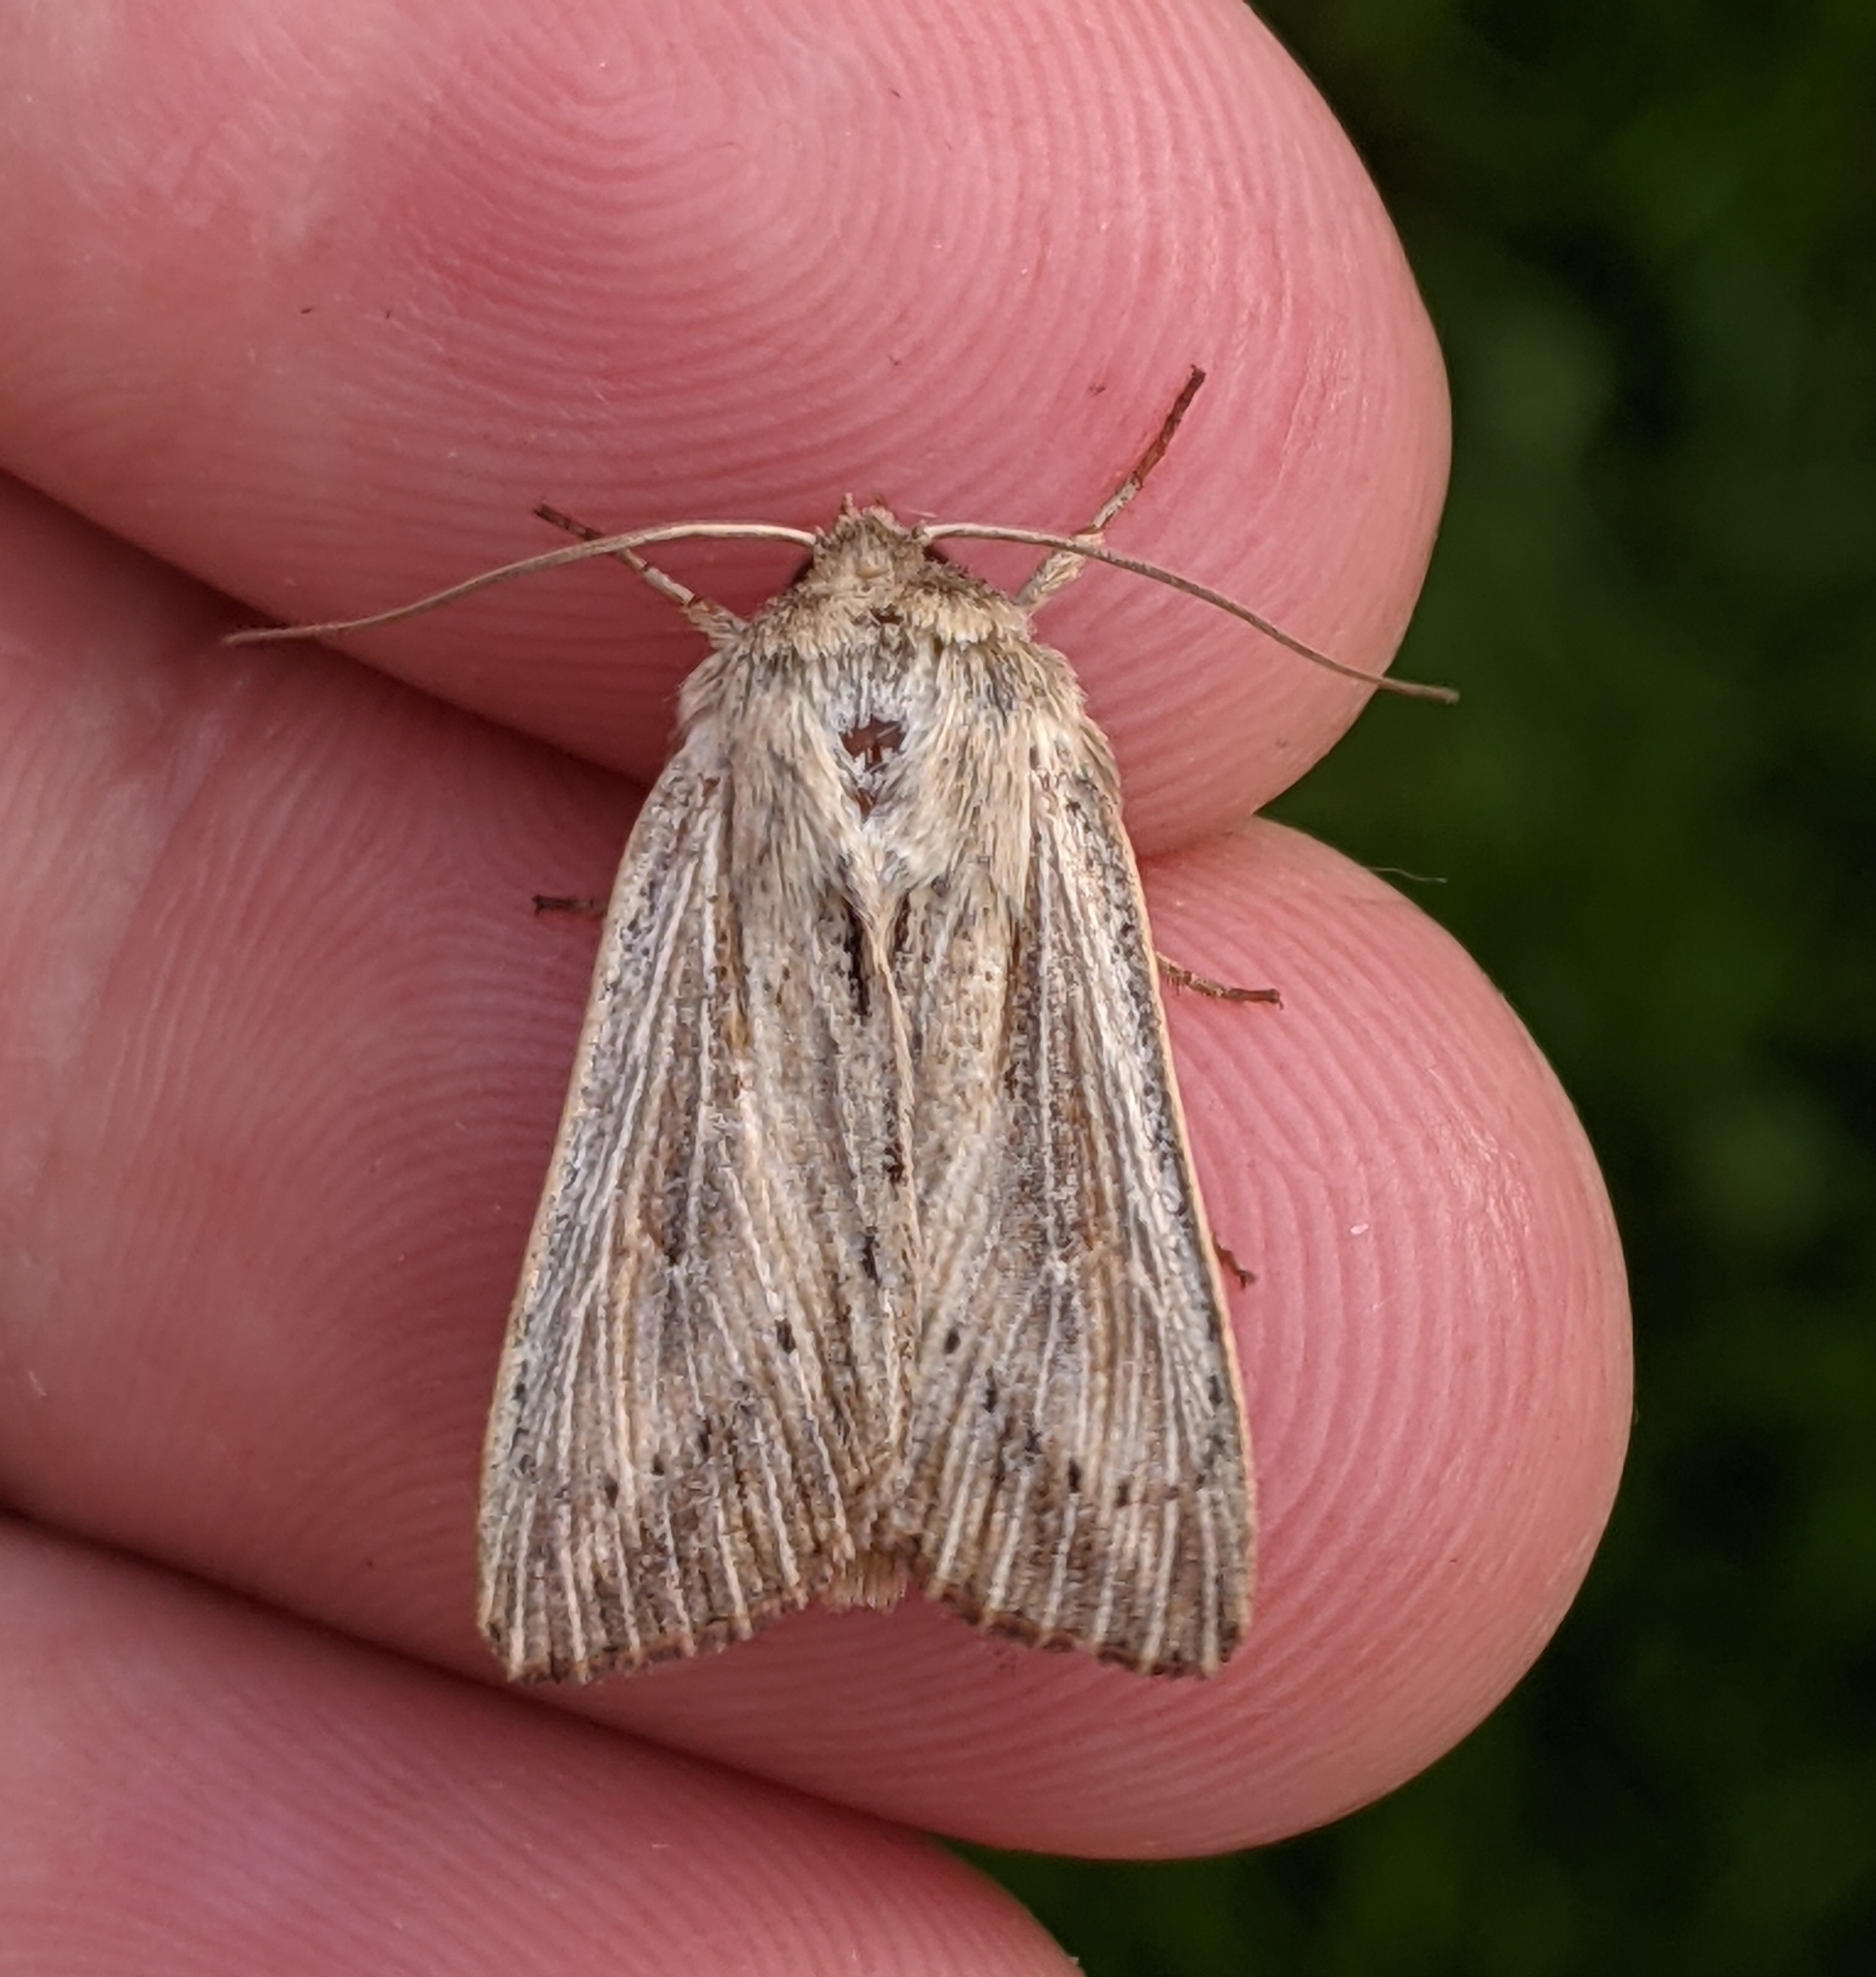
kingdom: Animalia
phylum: Arthropoda
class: Insecta
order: Lepidoptera
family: Noctuidae
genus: Leucania
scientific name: Leucania insueta
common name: Heterodox wainscot moth
